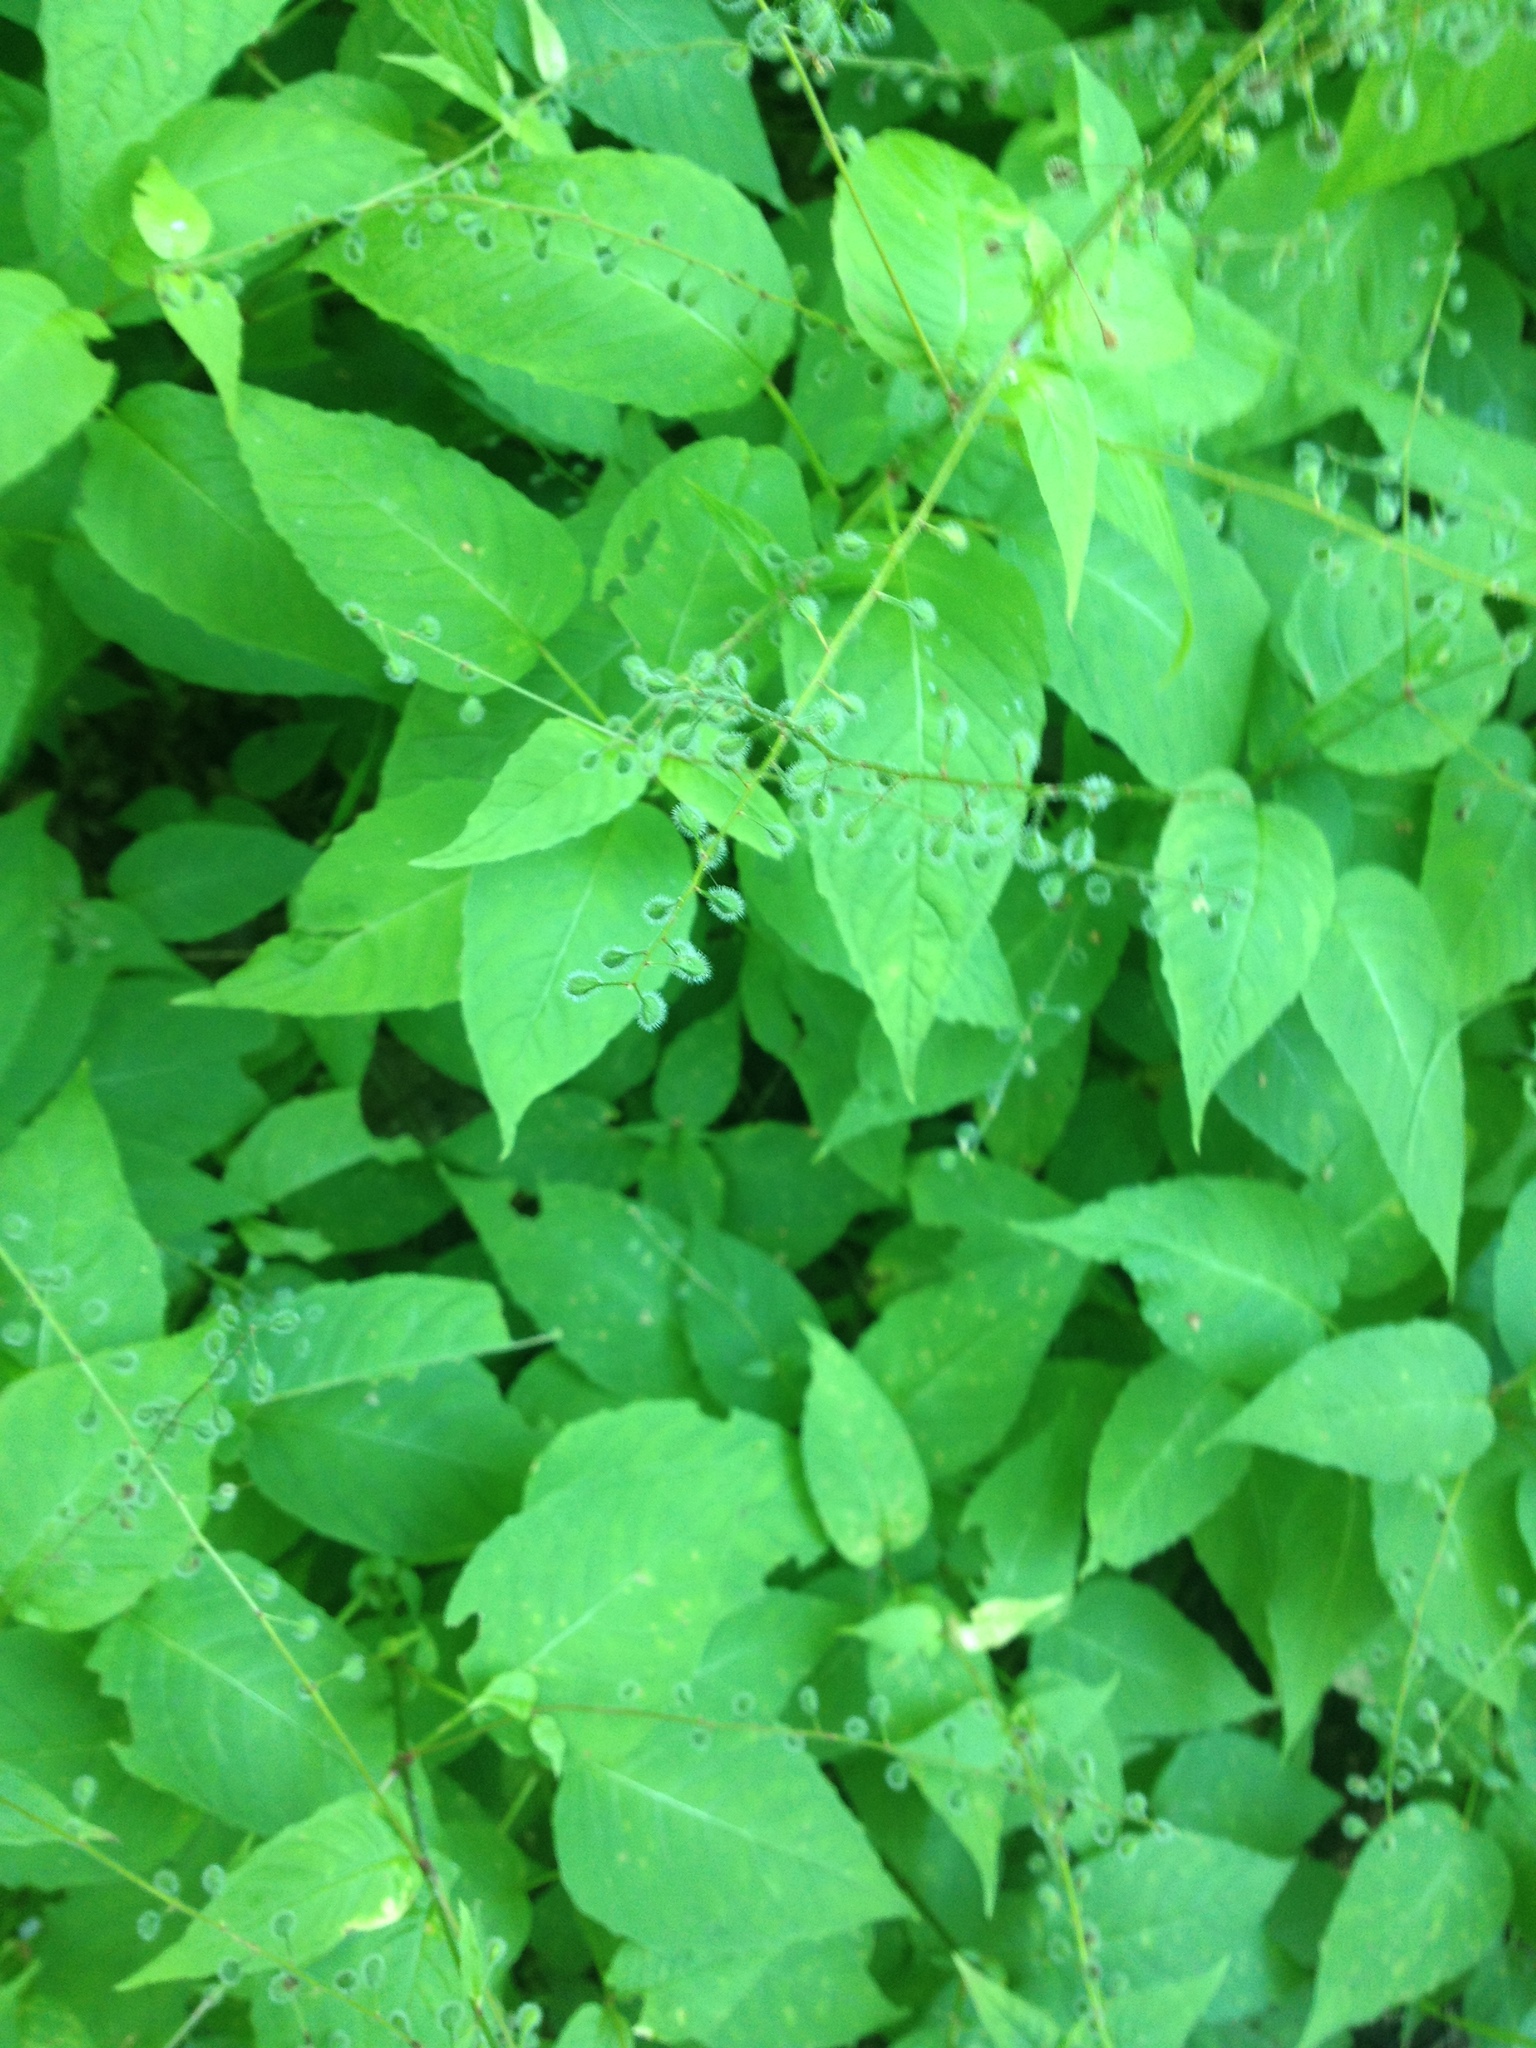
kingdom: Plantae
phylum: Tracheophyta
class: Magnoliopsida
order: Myrtales
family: Onagraceae
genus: Circaea
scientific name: Circaea canadensis
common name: Broad-leaved enchanter's nightshade
